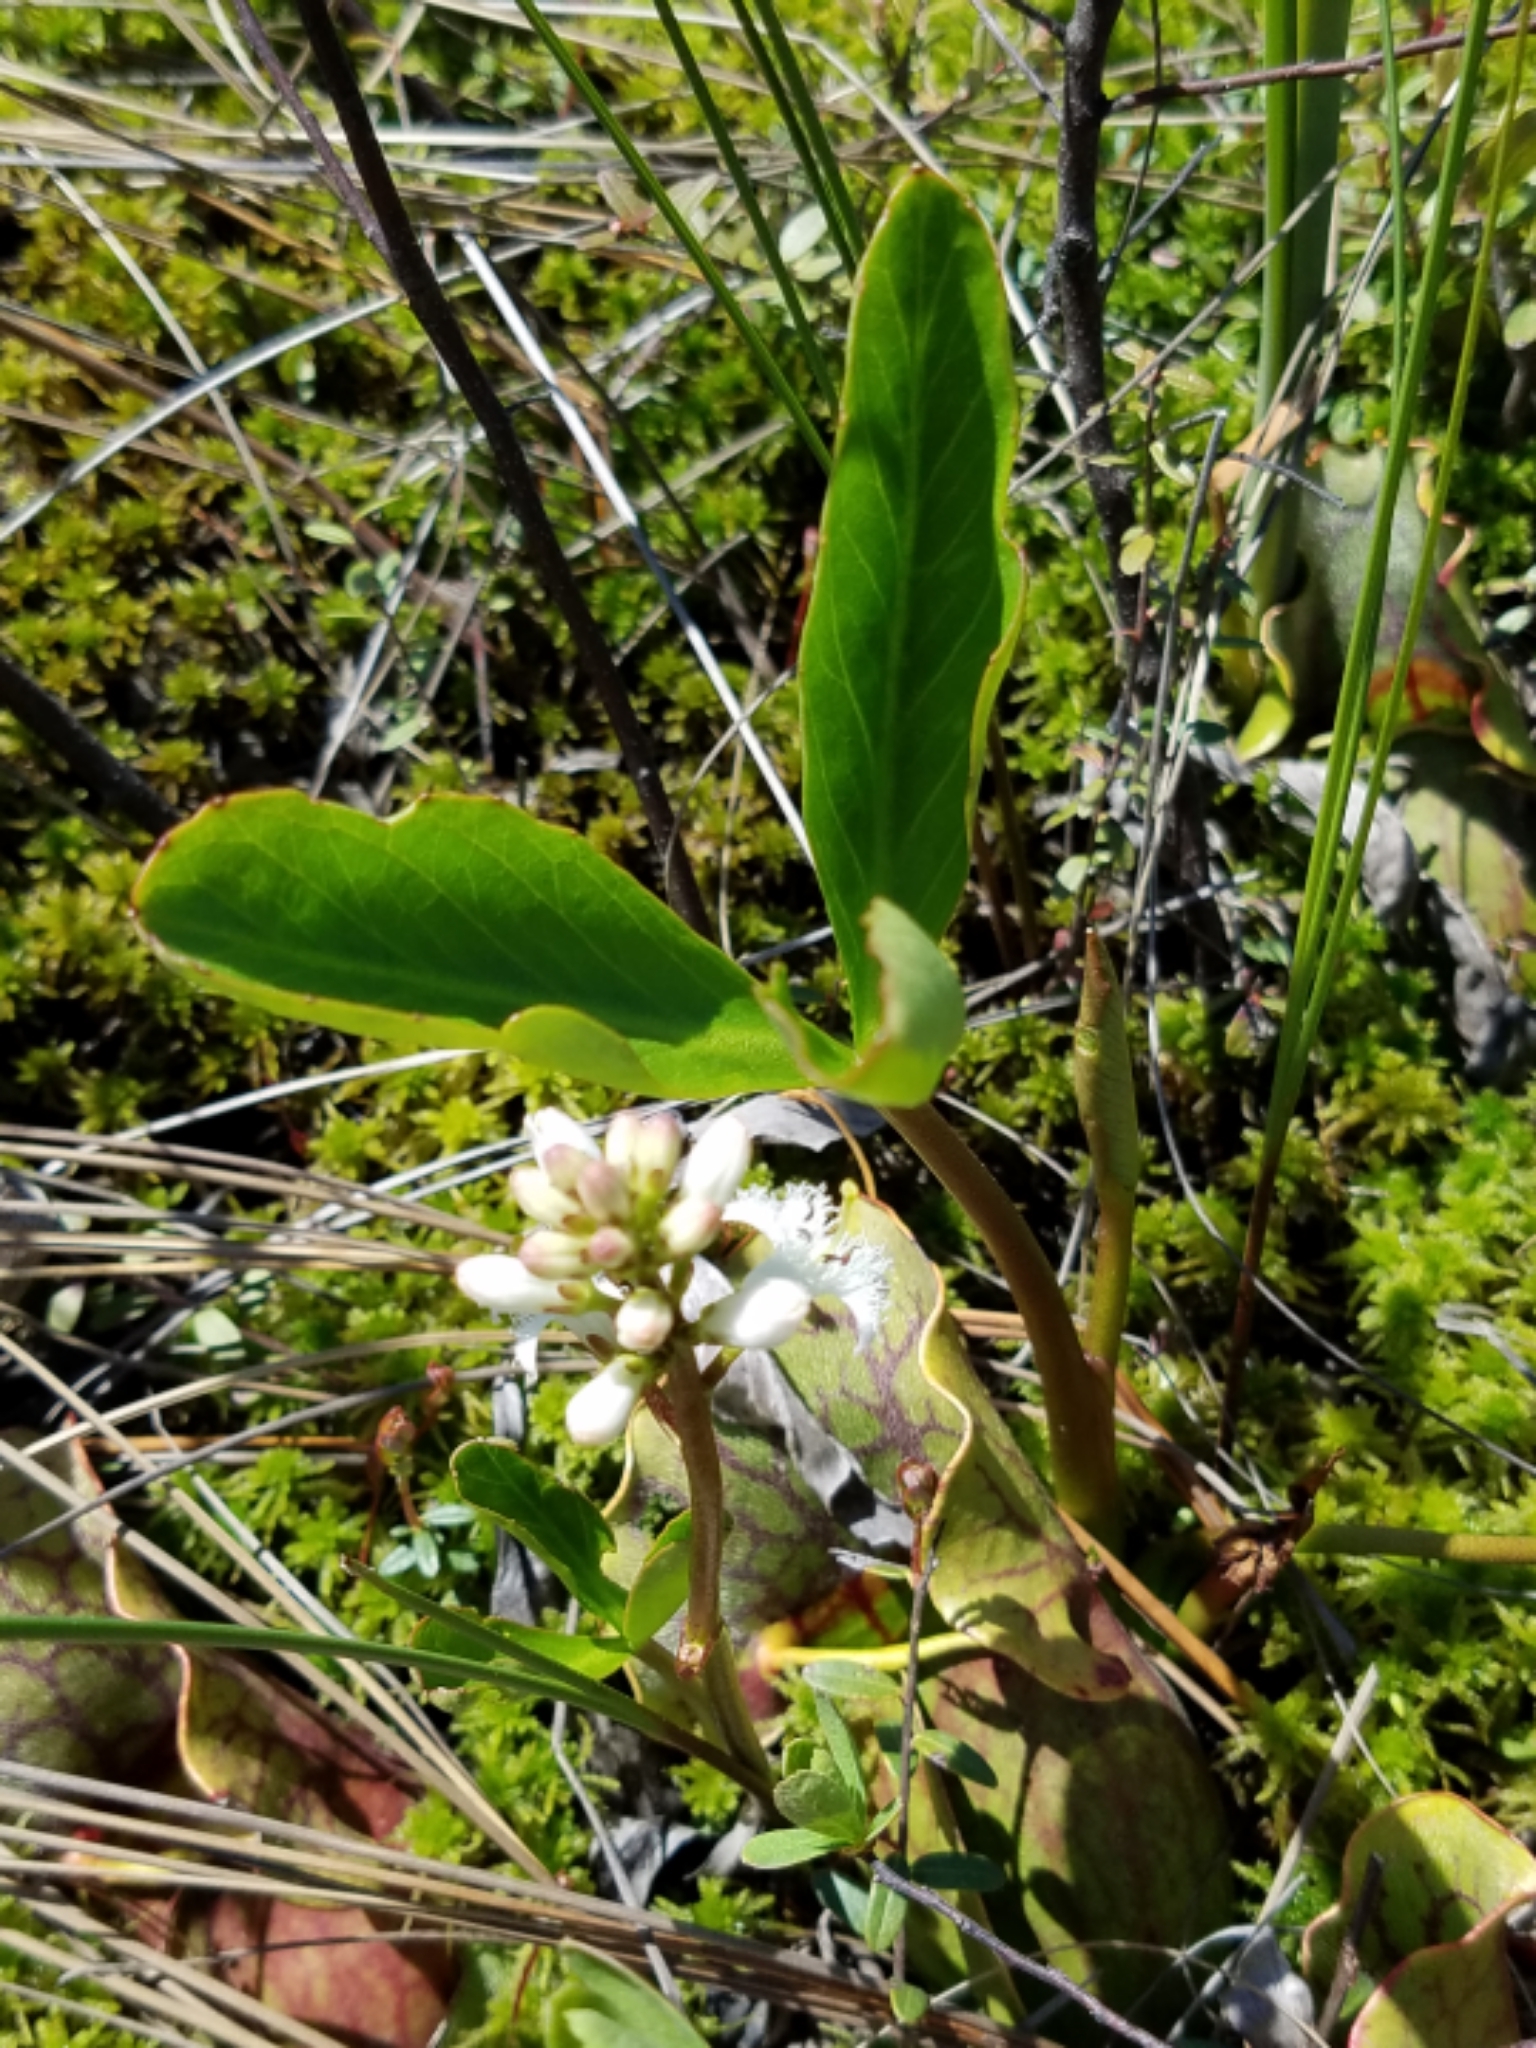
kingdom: Plantae
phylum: Tracheophyta
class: Magnoliopsida
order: Asterales
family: Menyanthaceae
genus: Menyanthes
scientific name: Menyanthes trifoliata
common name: Bogbean
